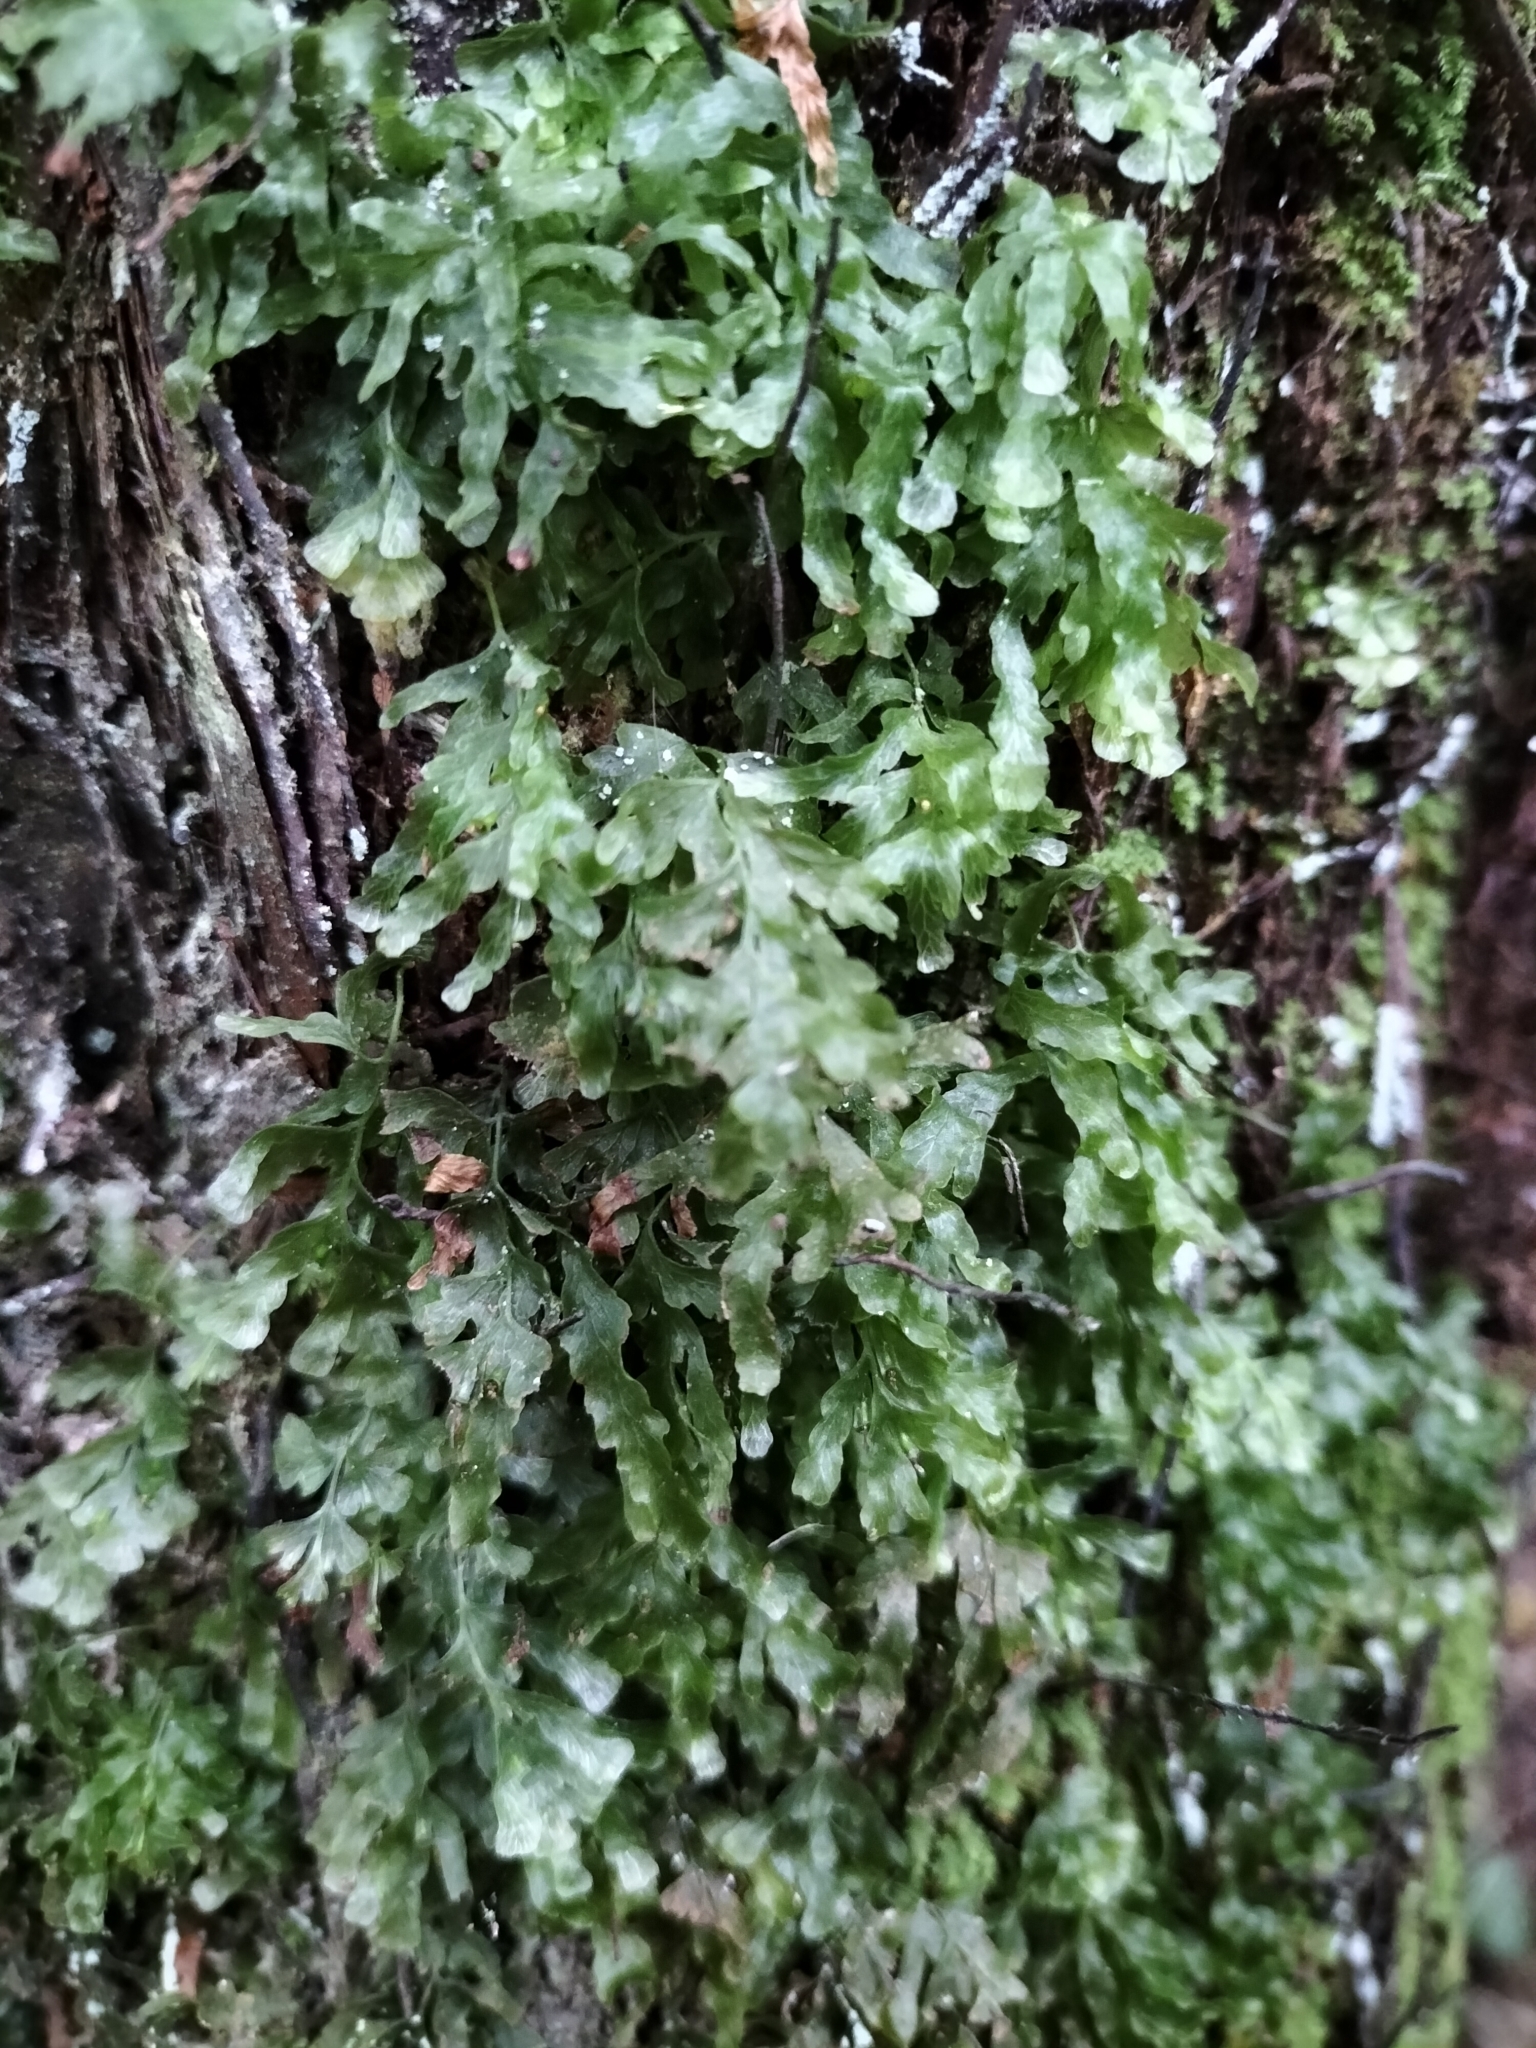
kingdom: Plantae
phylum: Tracheophyta
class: Polypodiopsida
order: Hymenophyllales
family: Hymenophyllaceae
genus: Polyphlebium
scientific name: Polyphlebium venosum
